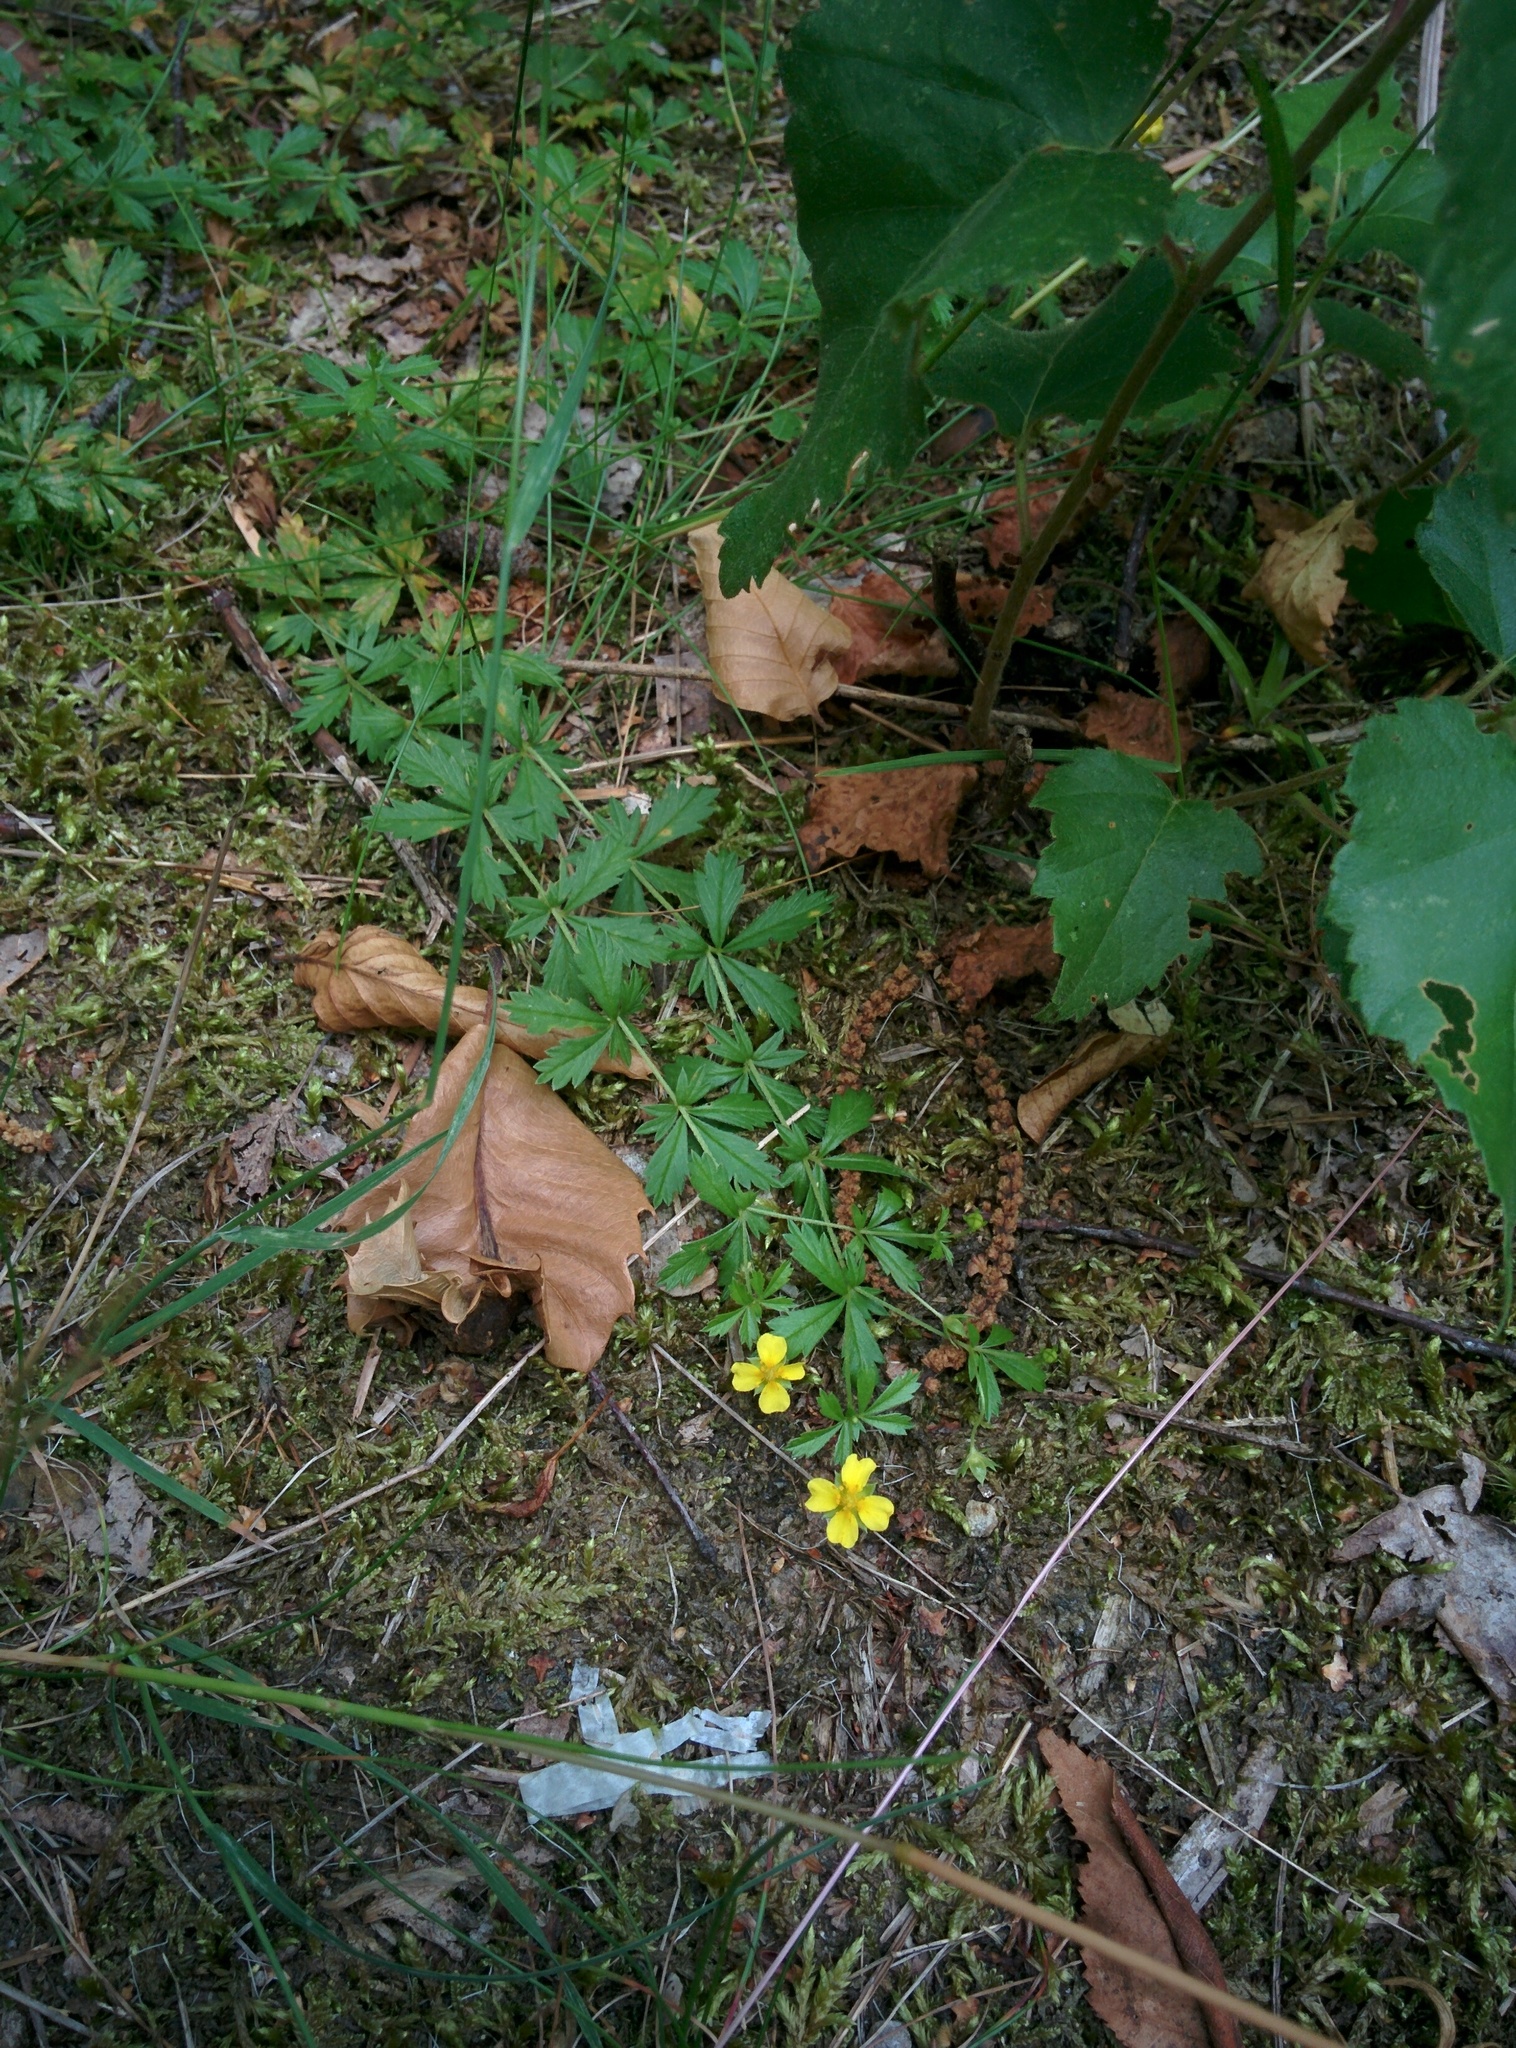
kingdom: Plantae
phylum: Tracheophyta
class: Magnoliopsida
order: Rosales
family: Rosaceae
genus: Potentilla
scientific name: Potentilla erecta
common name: Tormentil
